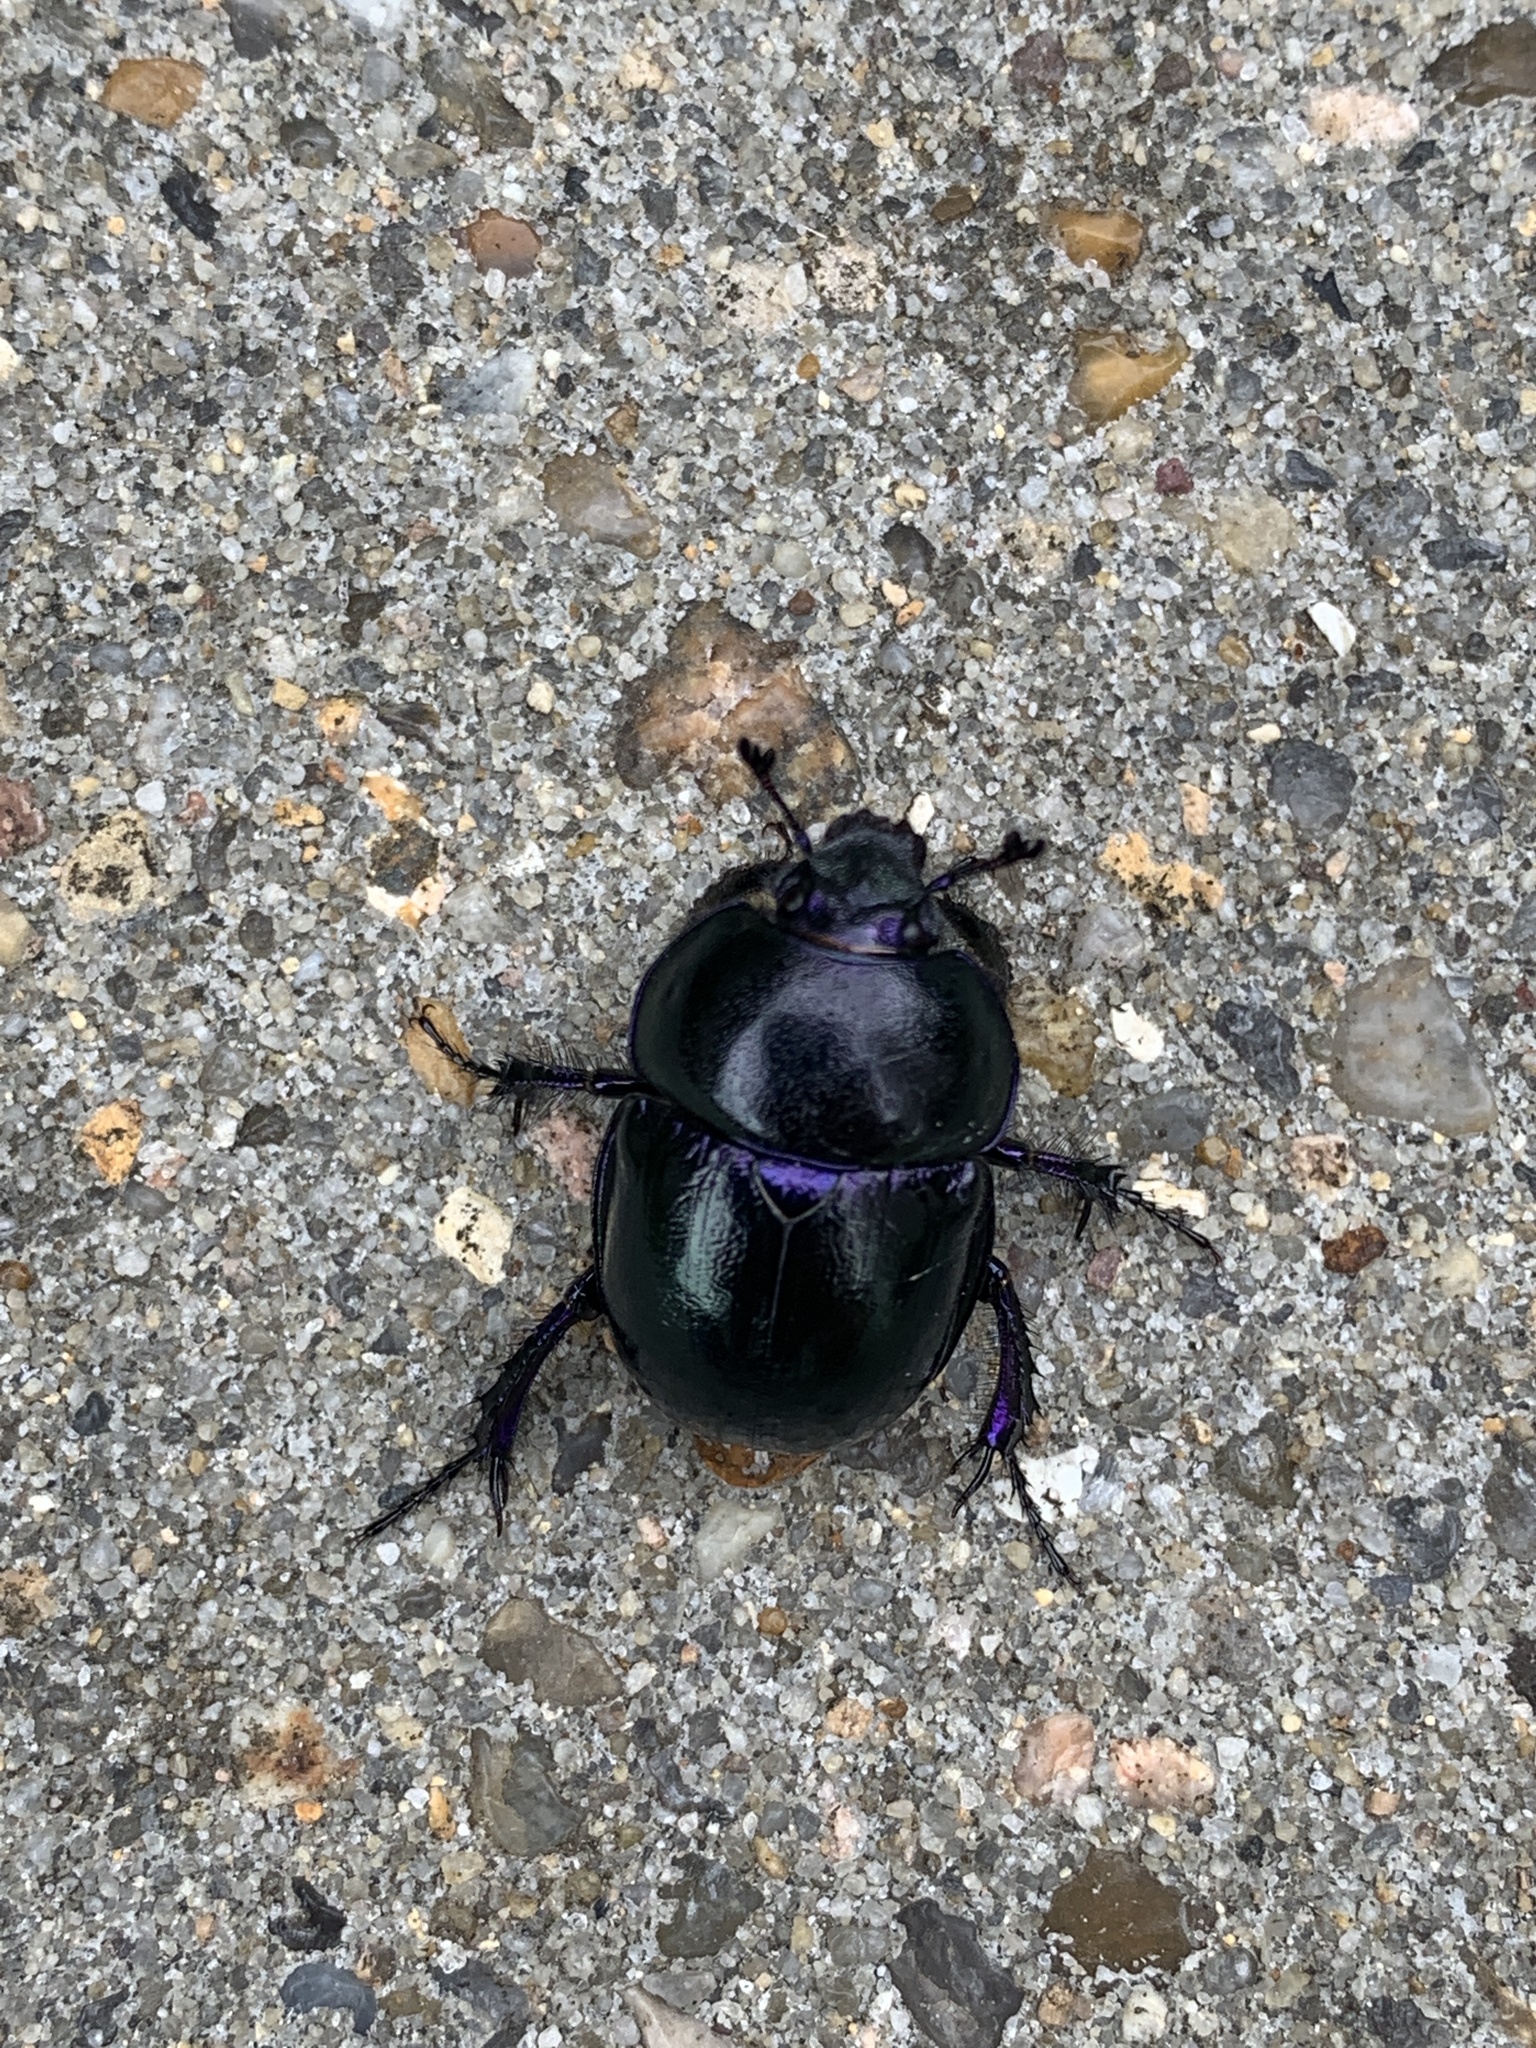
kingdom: Animalia
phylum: Arthropoda
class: Insecta
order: Coleoptera
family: Geotrupidae
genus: Trypocopris
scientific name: Trypocopris vernalis
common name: Spring dumbledor
